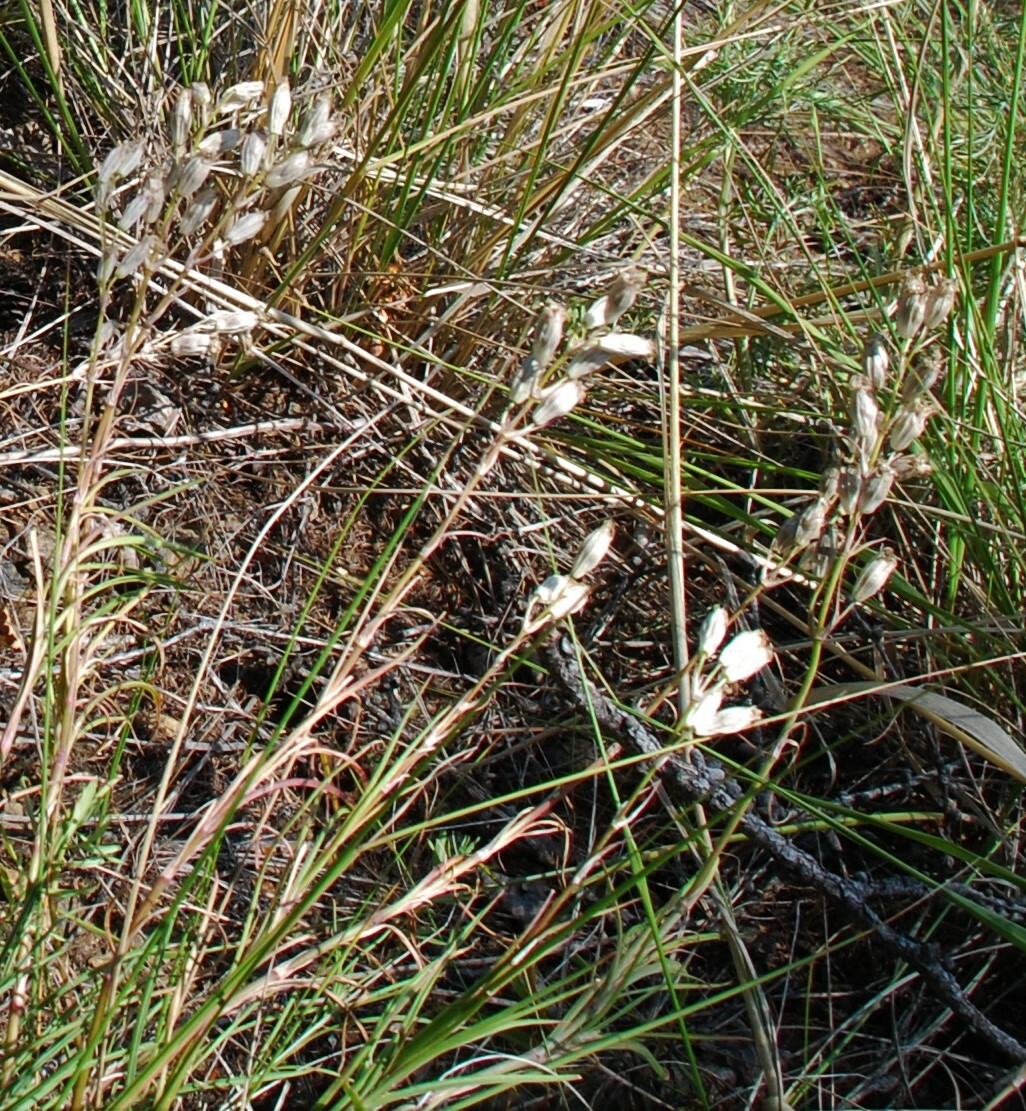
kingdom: Plantae
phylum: Tracheophyta
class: Magnoliopsida
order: Caryophyllales
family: Caryophyllaceae
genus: Silene
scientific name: Silene jeniseensis
